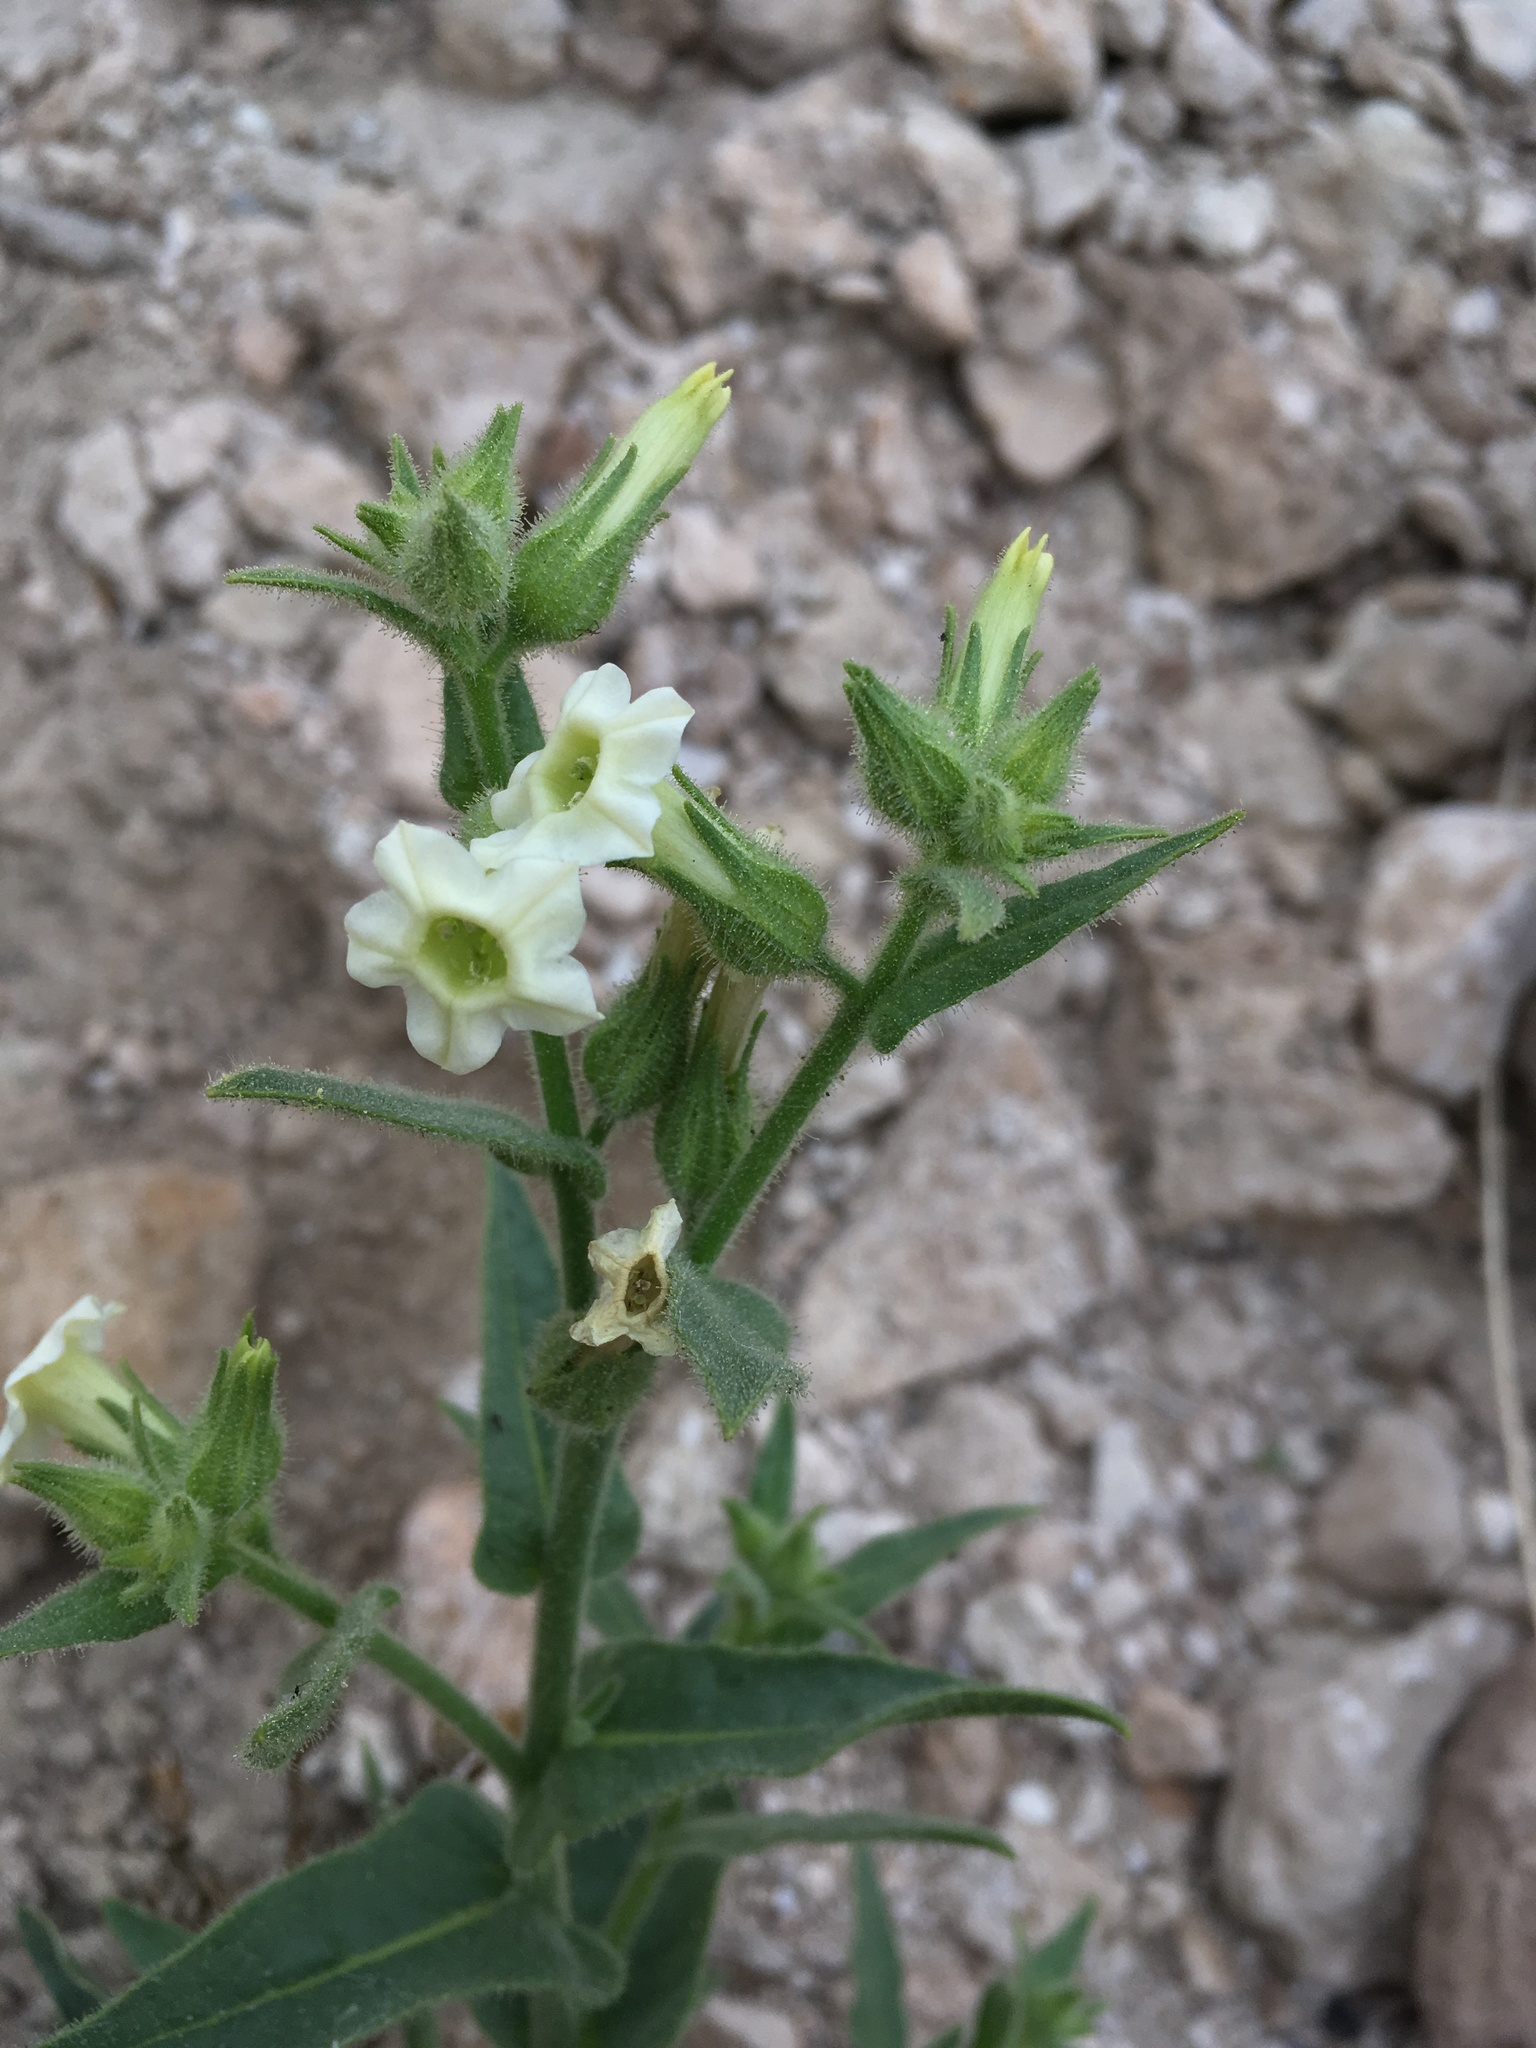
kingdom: Plantae
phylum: Tracheophyta
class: Magnoliopsida
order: Solanales
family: Solanaceae
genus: Nicotiana
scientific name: Nicotiana obtusifolia
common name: Desert tobacco
